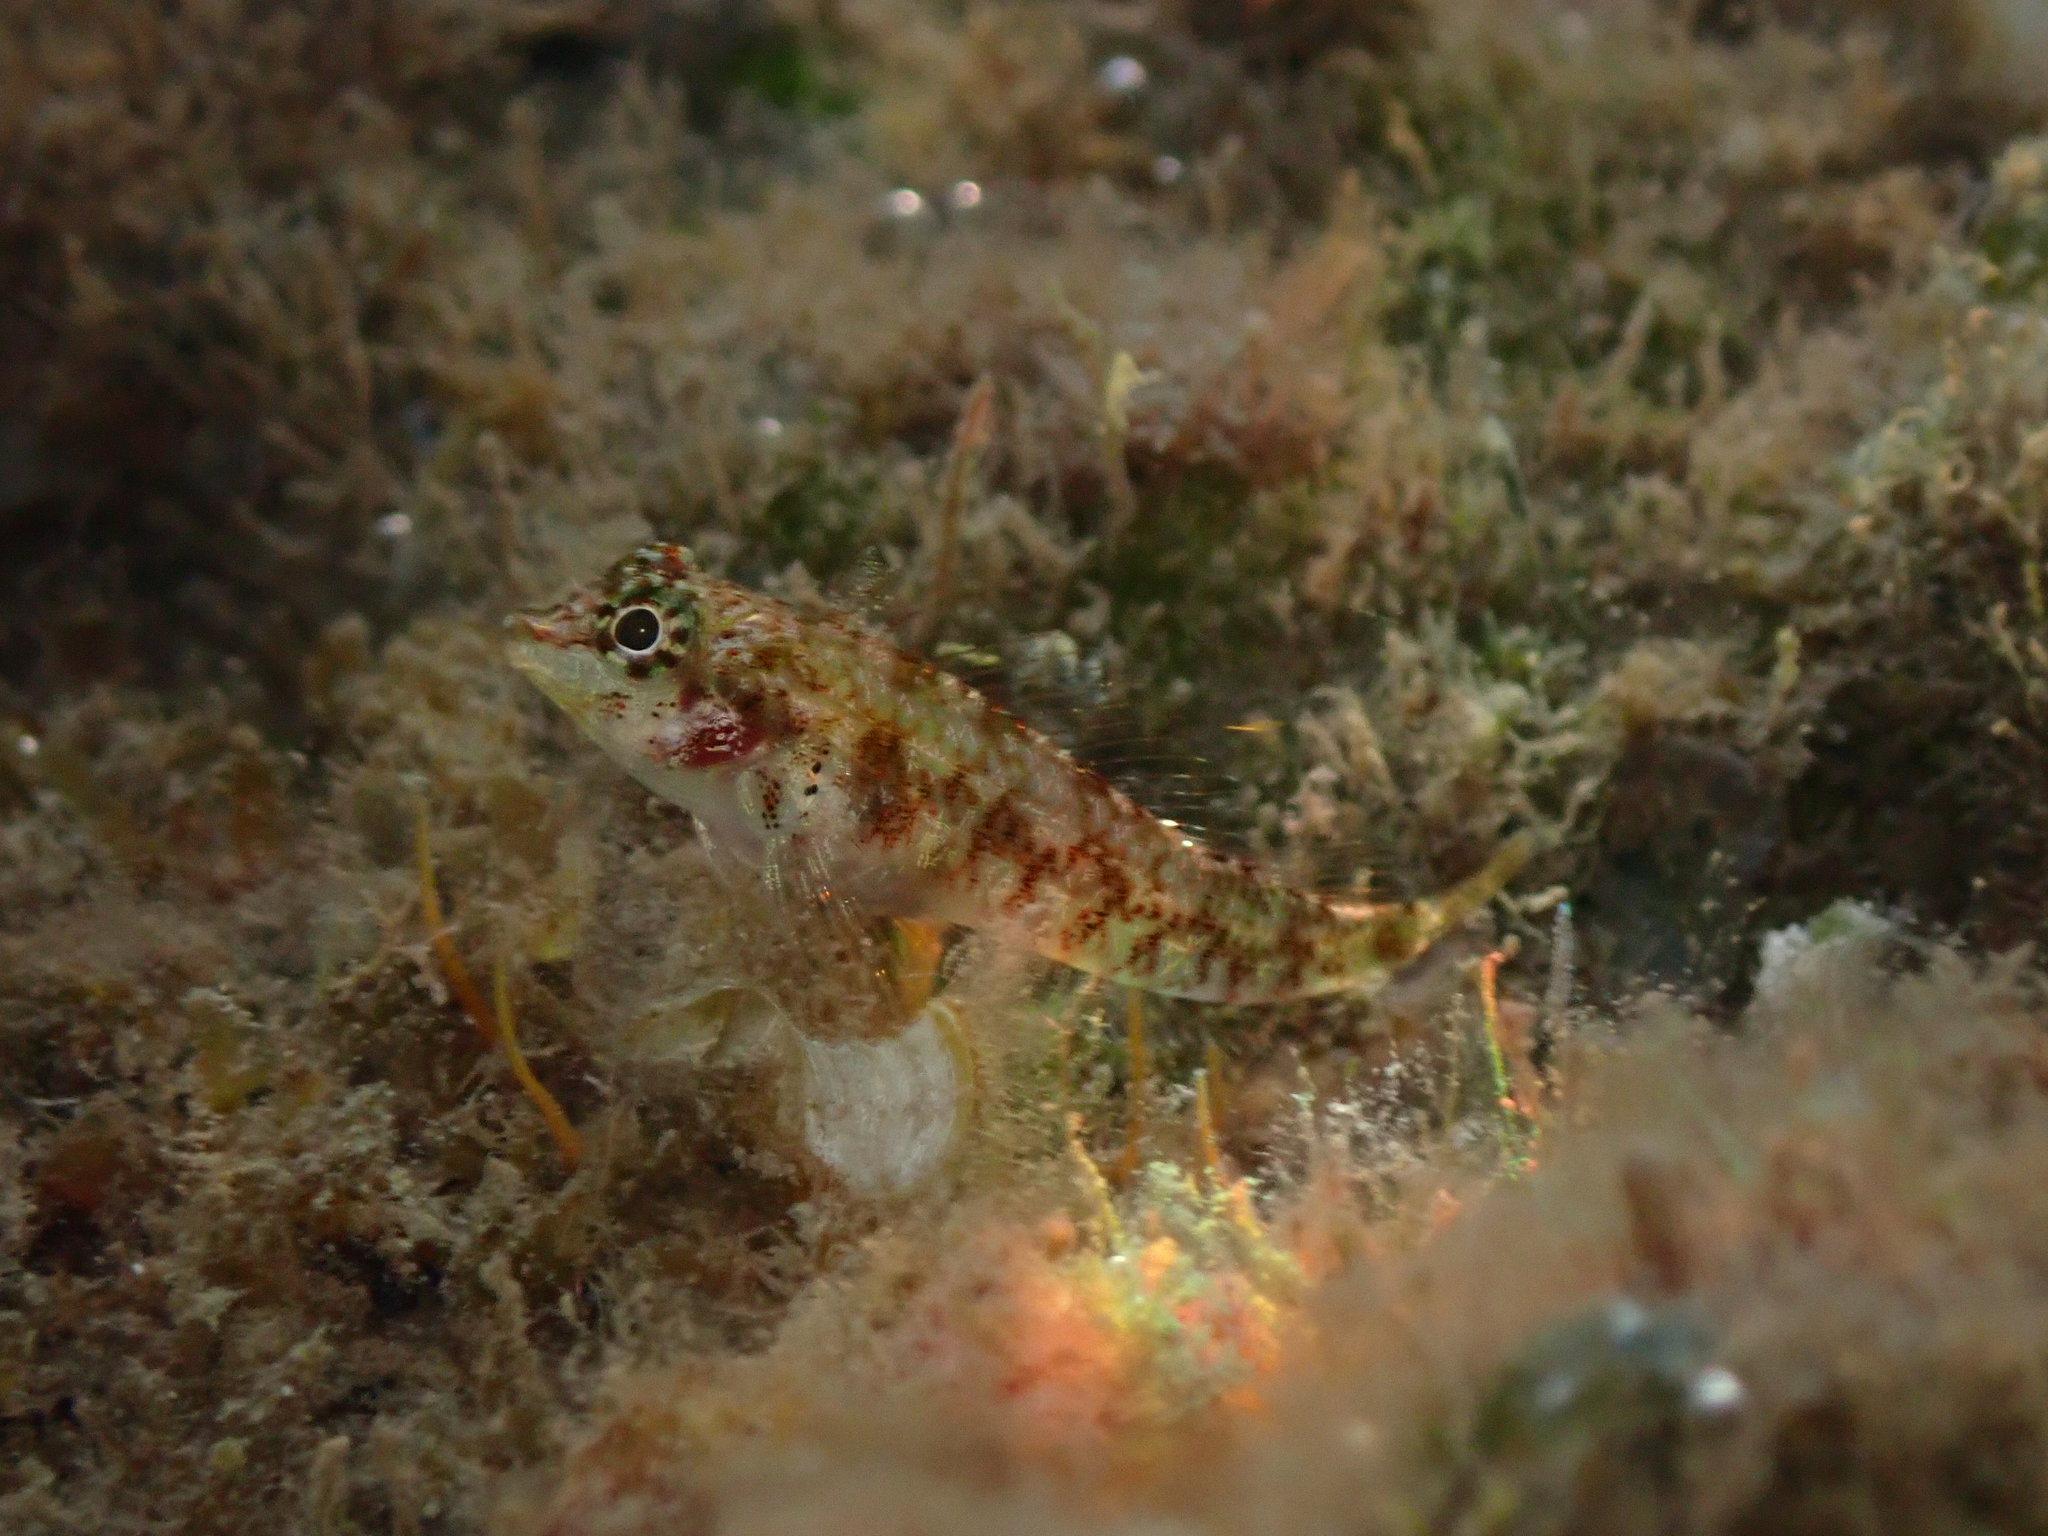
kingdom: Animalia
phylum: Chordata
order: Perciformes
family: Tripterygiidae
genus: Enneapterygius
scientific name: Enneapterygius atriceps
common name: Hawaiian blackhead triplefin
